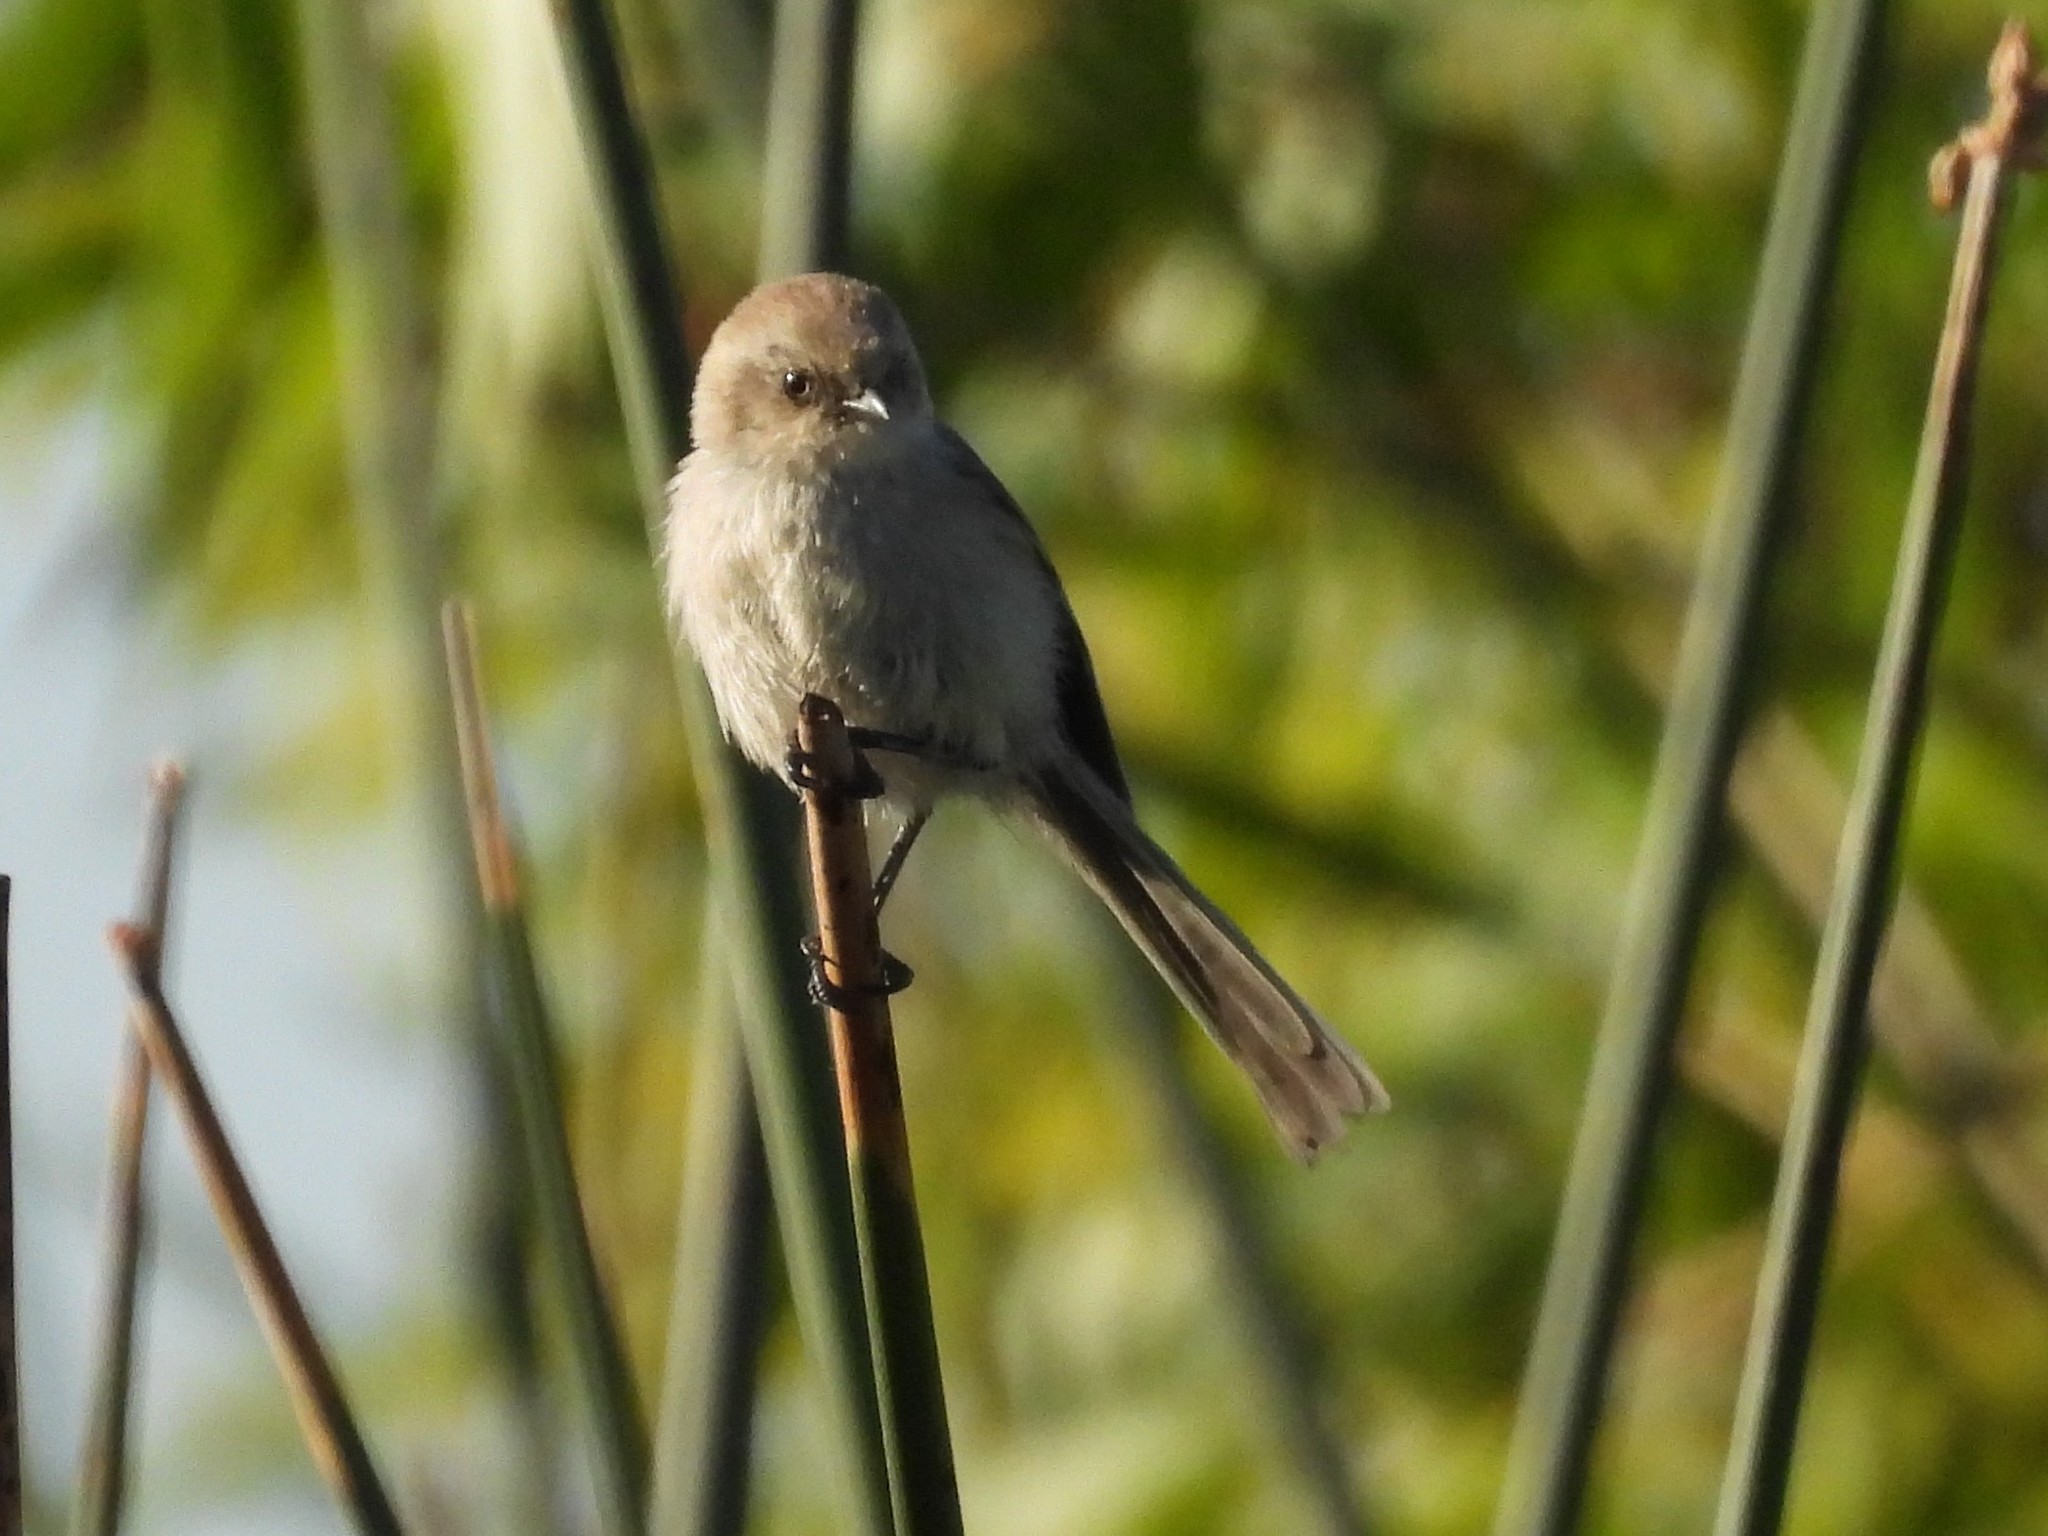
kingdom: Animalia
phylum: Chordata
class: Aves
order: Passeriformes
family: Aegithalidae
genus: Psaltriparus
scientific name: Psaltriparus minimus
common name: American bushtit
